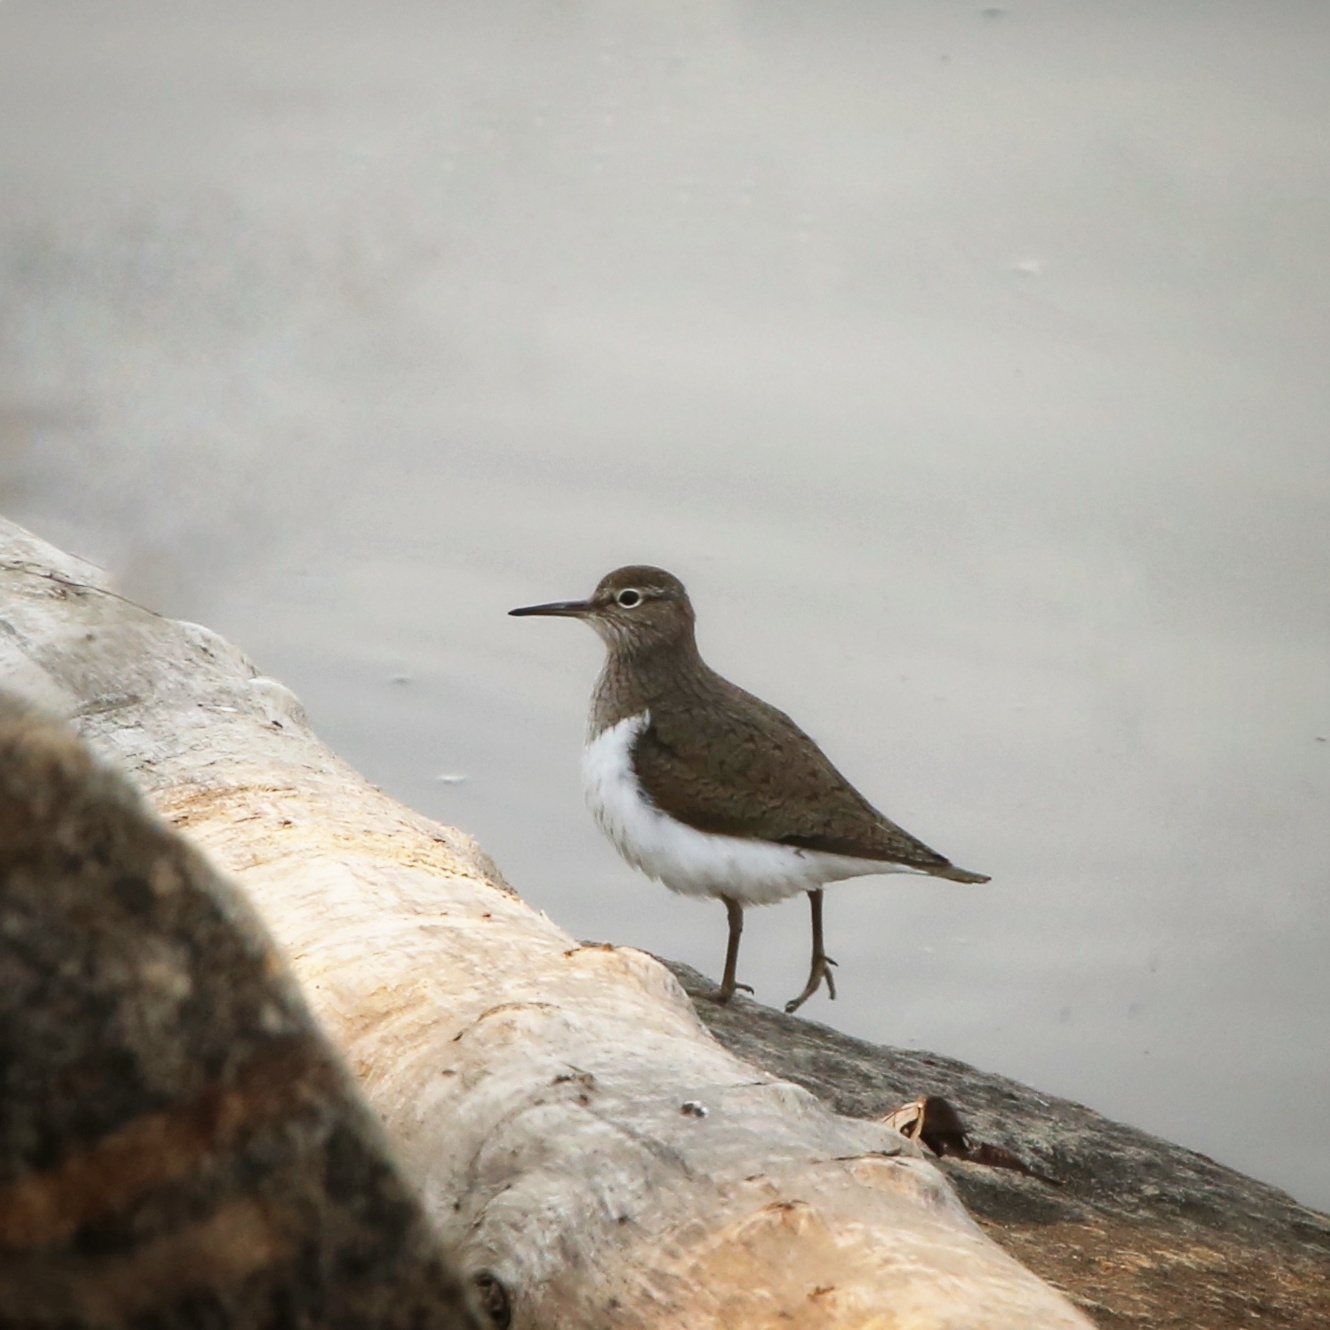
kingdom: Animalia
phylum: Chordata
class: Aves
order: Charadriiformes
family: Scolopacidae
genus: Actitis
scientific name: Actitis hypoleucos
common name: Common sandpiper
